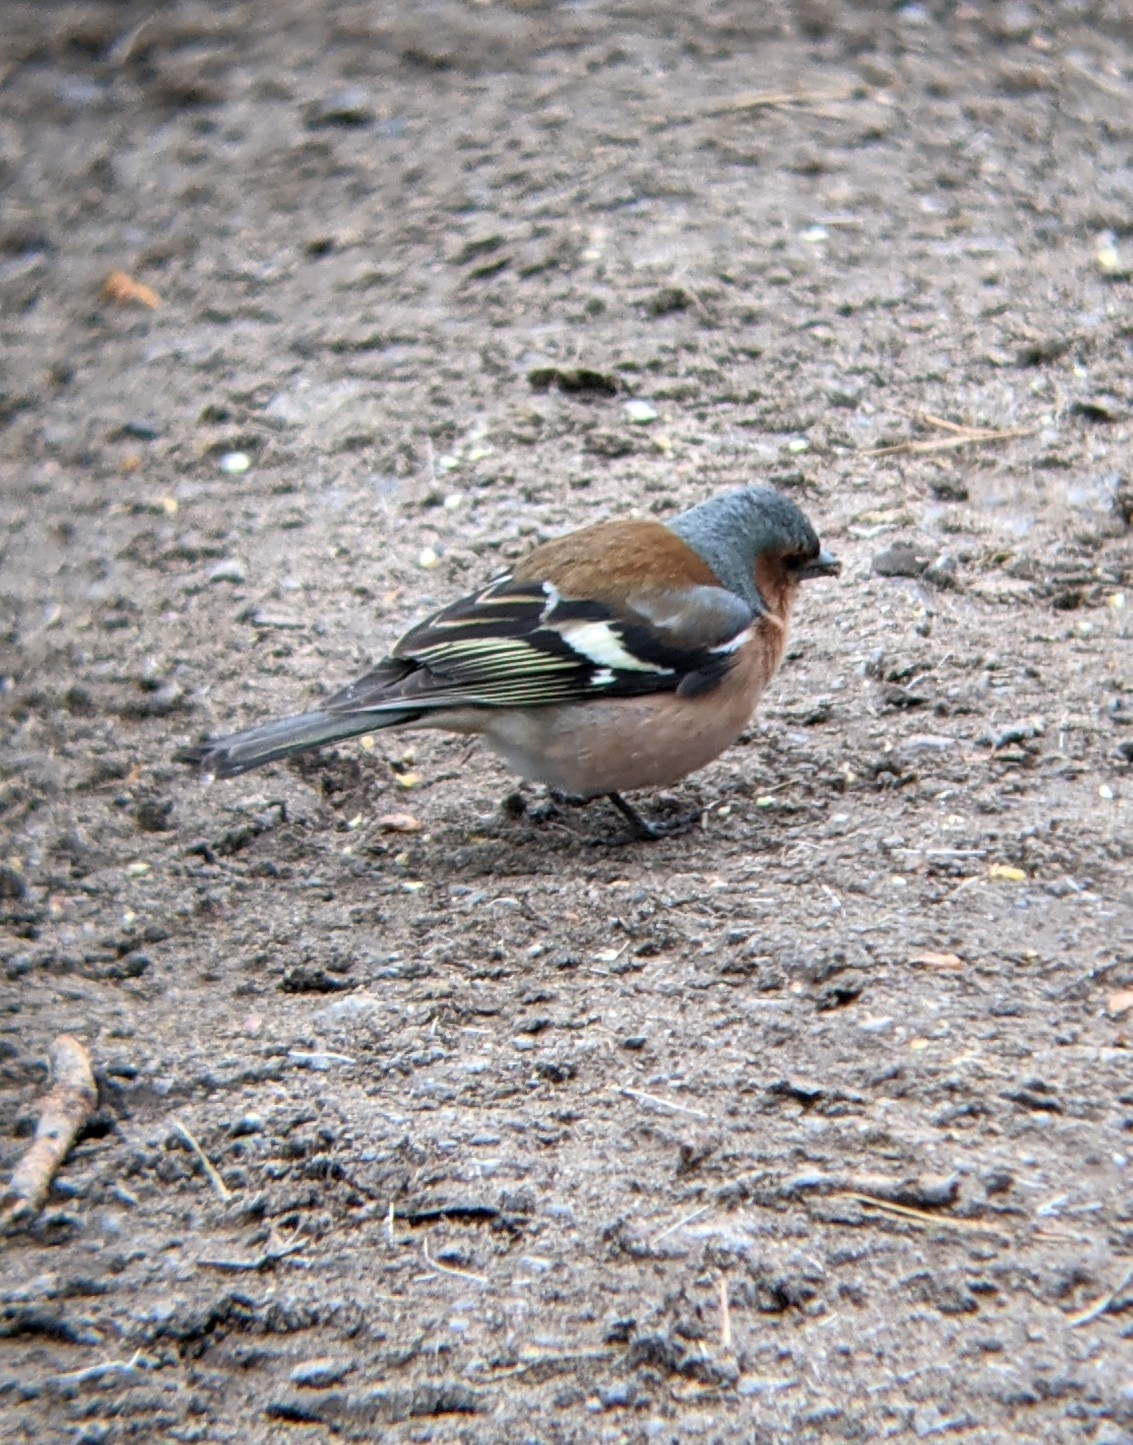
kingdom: Animalia
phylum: Chordata
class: Aves
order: Passeriformes
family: Fringillidae
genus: Fringilla
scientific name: Fringilla coelebs
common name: Common chaffinch
